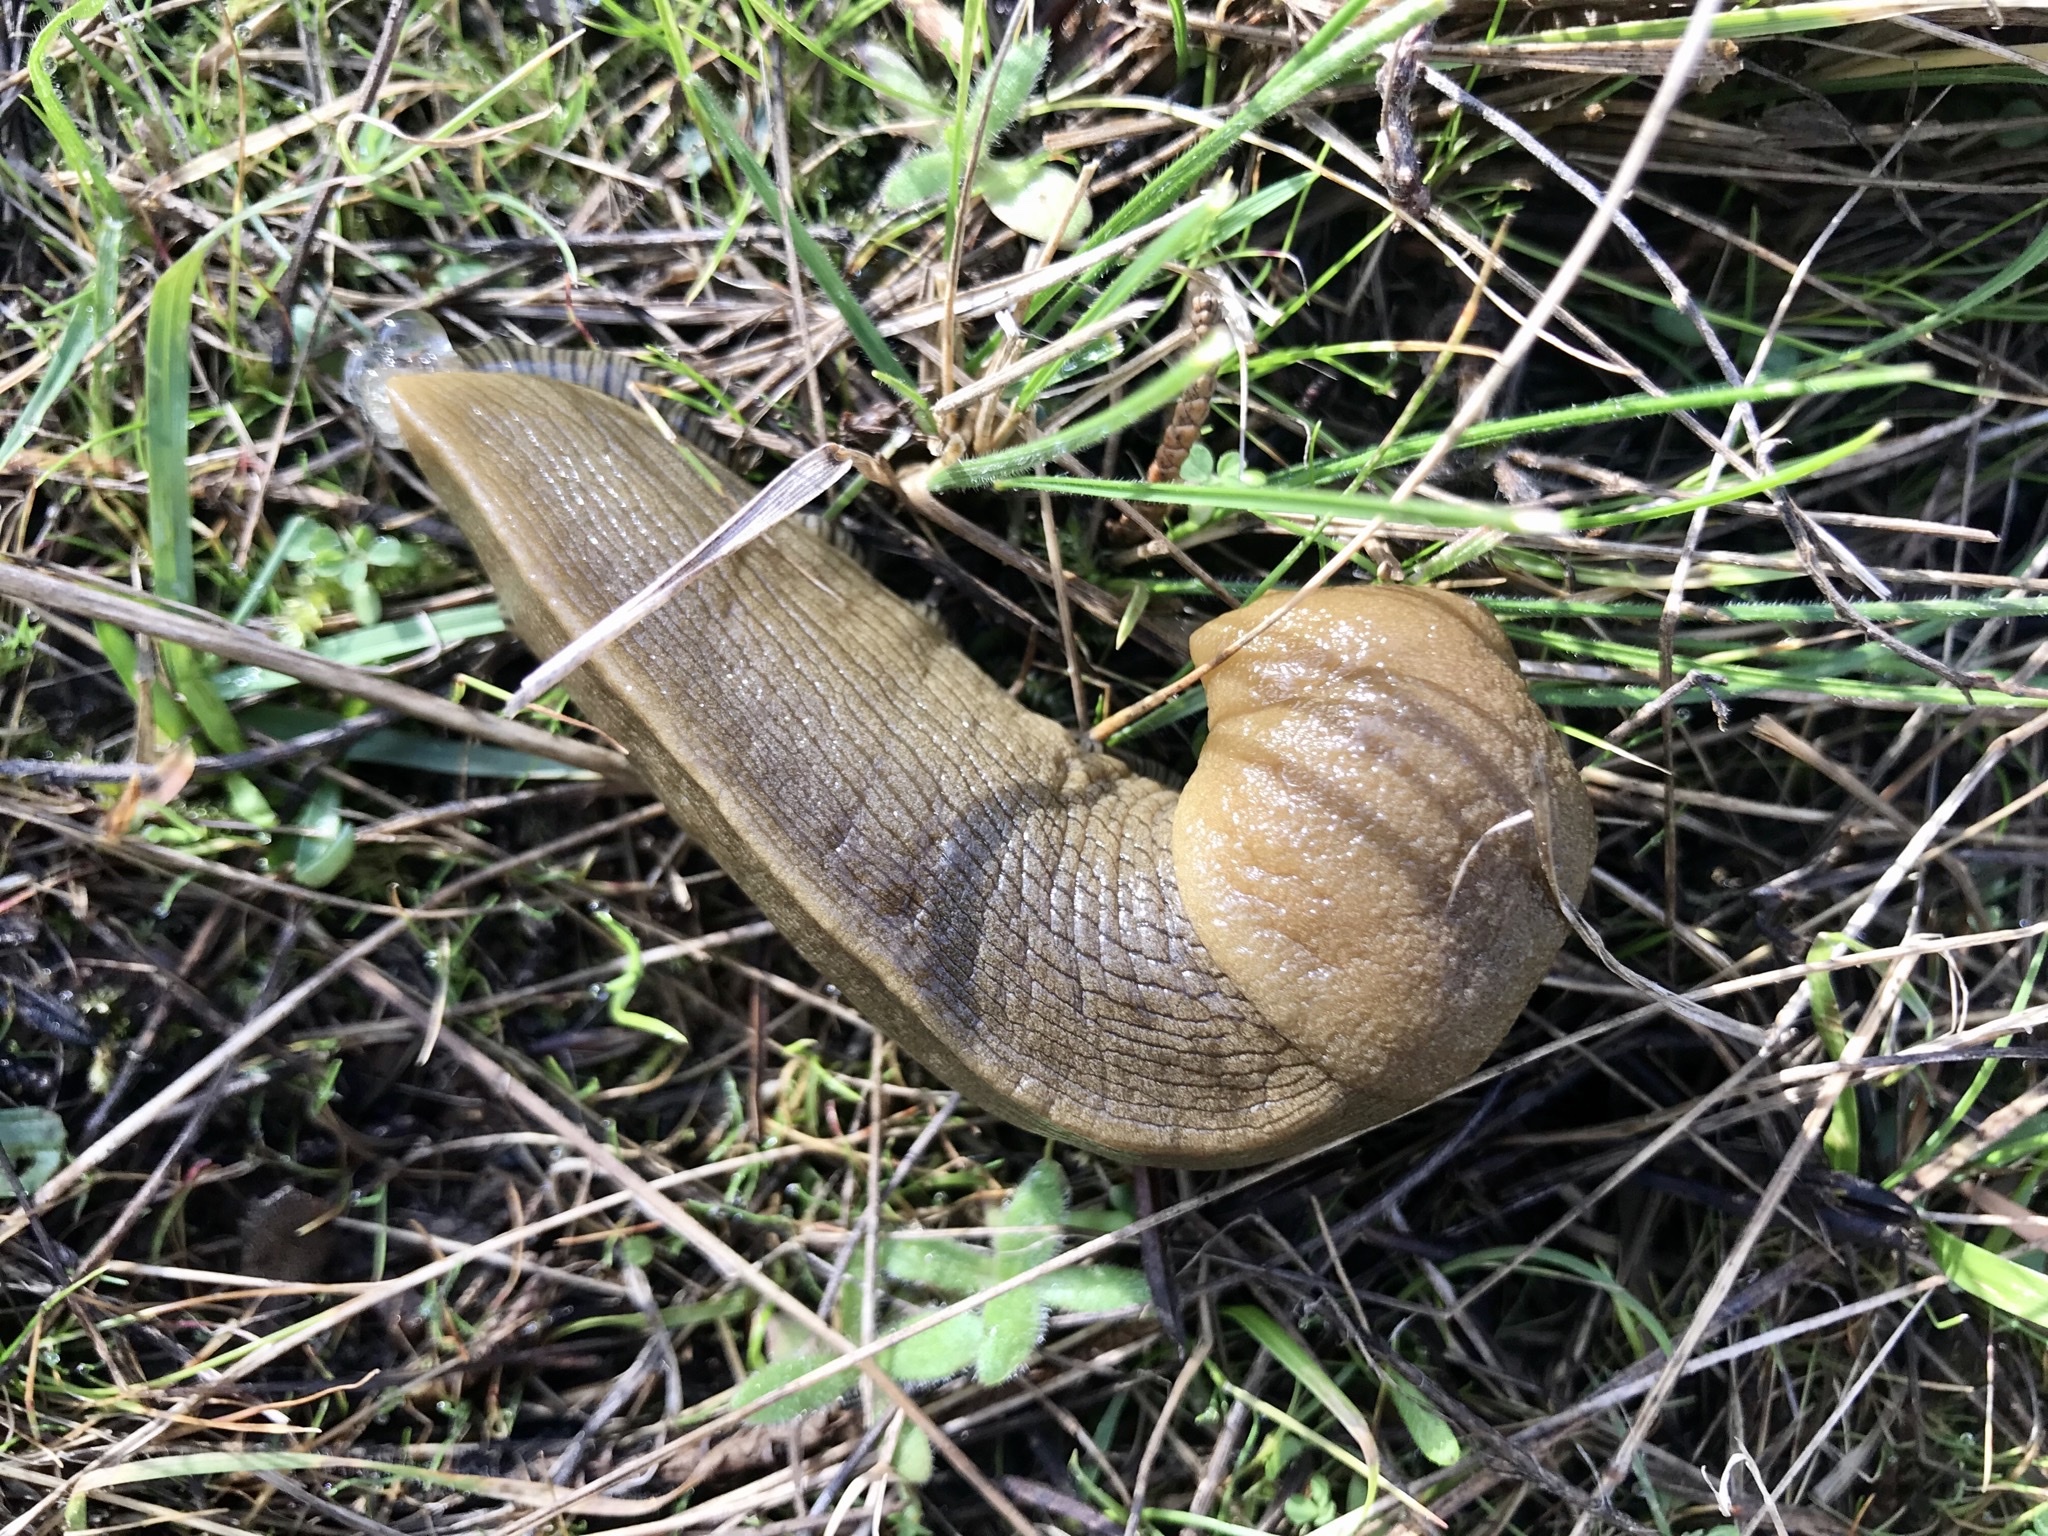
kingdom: Animalia
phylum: Mollusca
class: Gastropoda
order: Stylommatophora
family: Ariolimacidae
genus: Ariolimax
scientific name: Ariolimax buttoni
